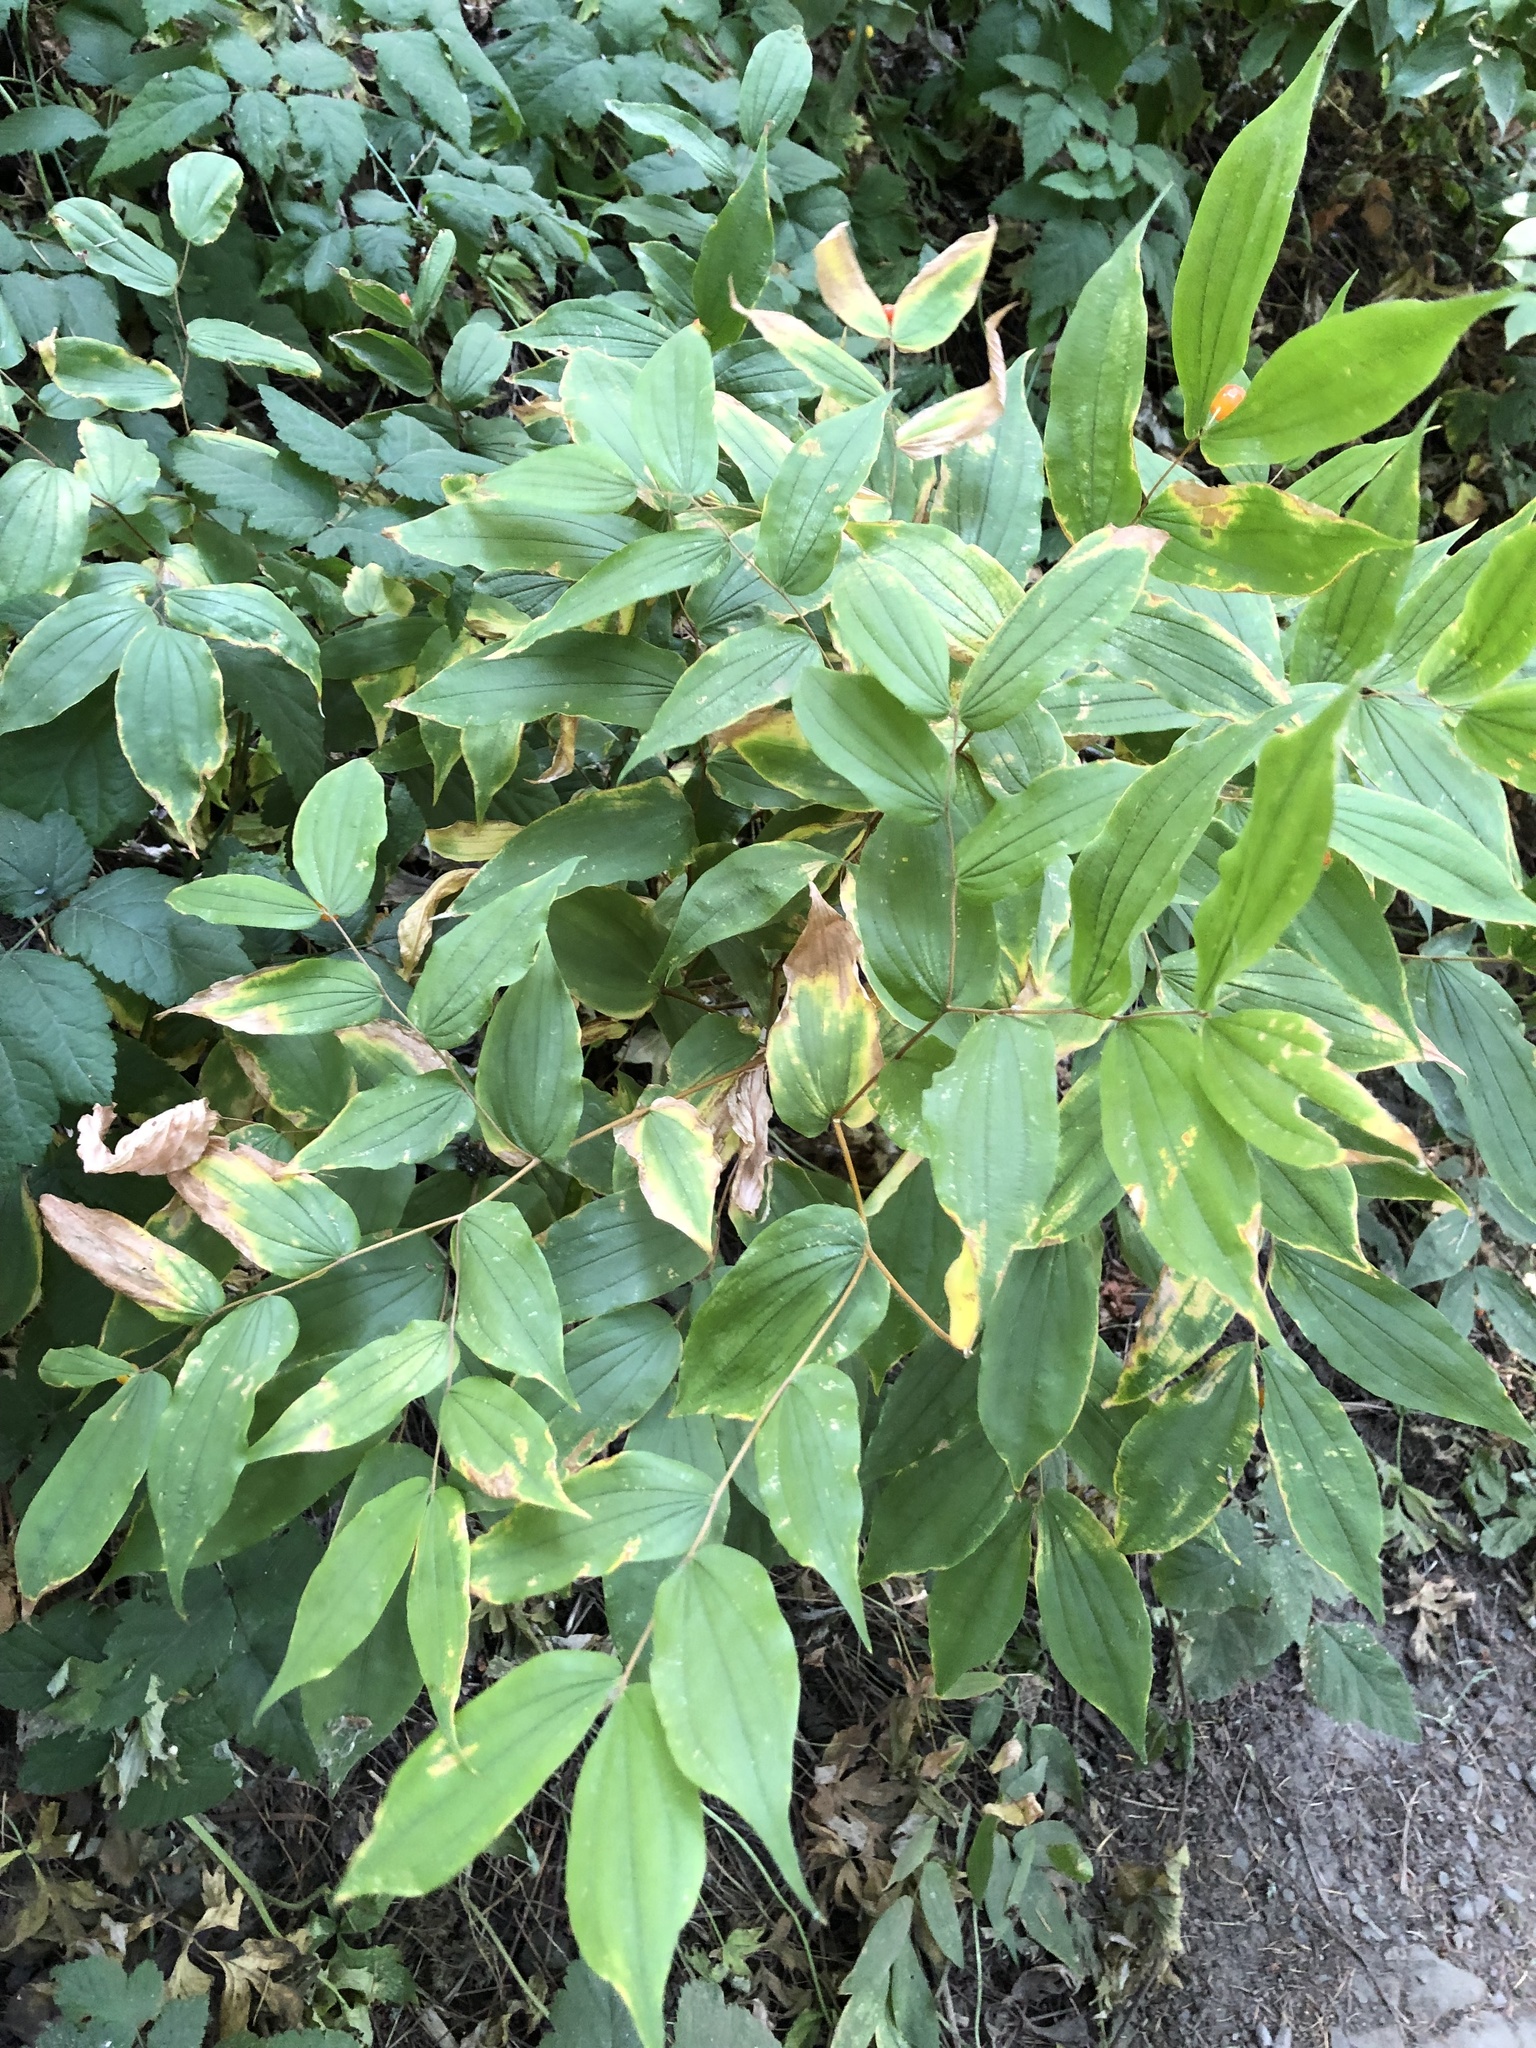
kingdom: Plantae
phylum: Tracheophyta
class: Liliopsida
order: Liliales
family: Liliaceae
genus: Prosartes
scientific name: Prosartes hookeri
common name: Fairy-bells
